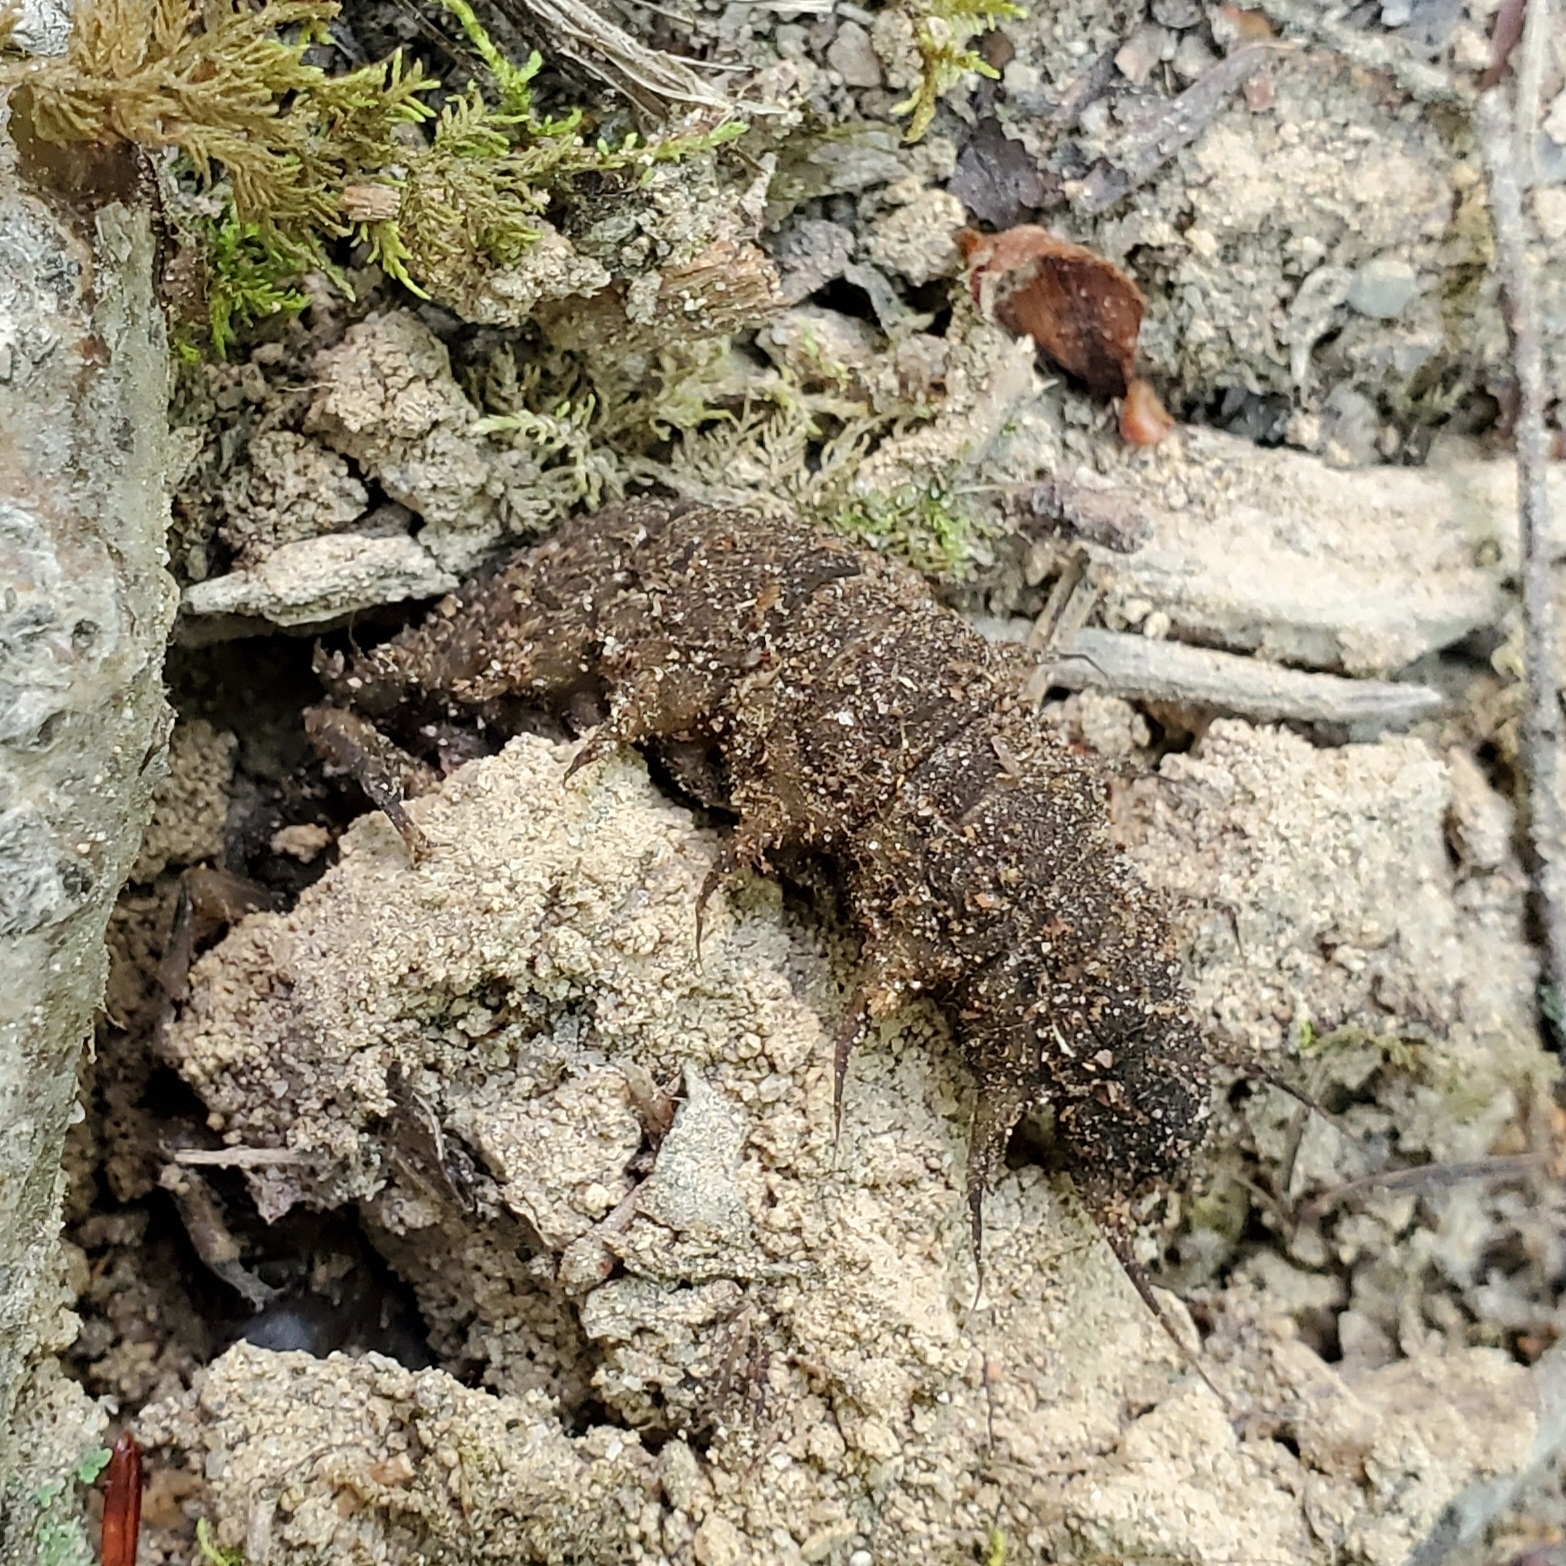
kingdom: Animalia
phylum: Arthropoda
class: Insecta
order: Megaloptera
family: Corydalidae
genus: Corydalus
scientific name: Corydalus cornutus
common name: Dobsonfly
